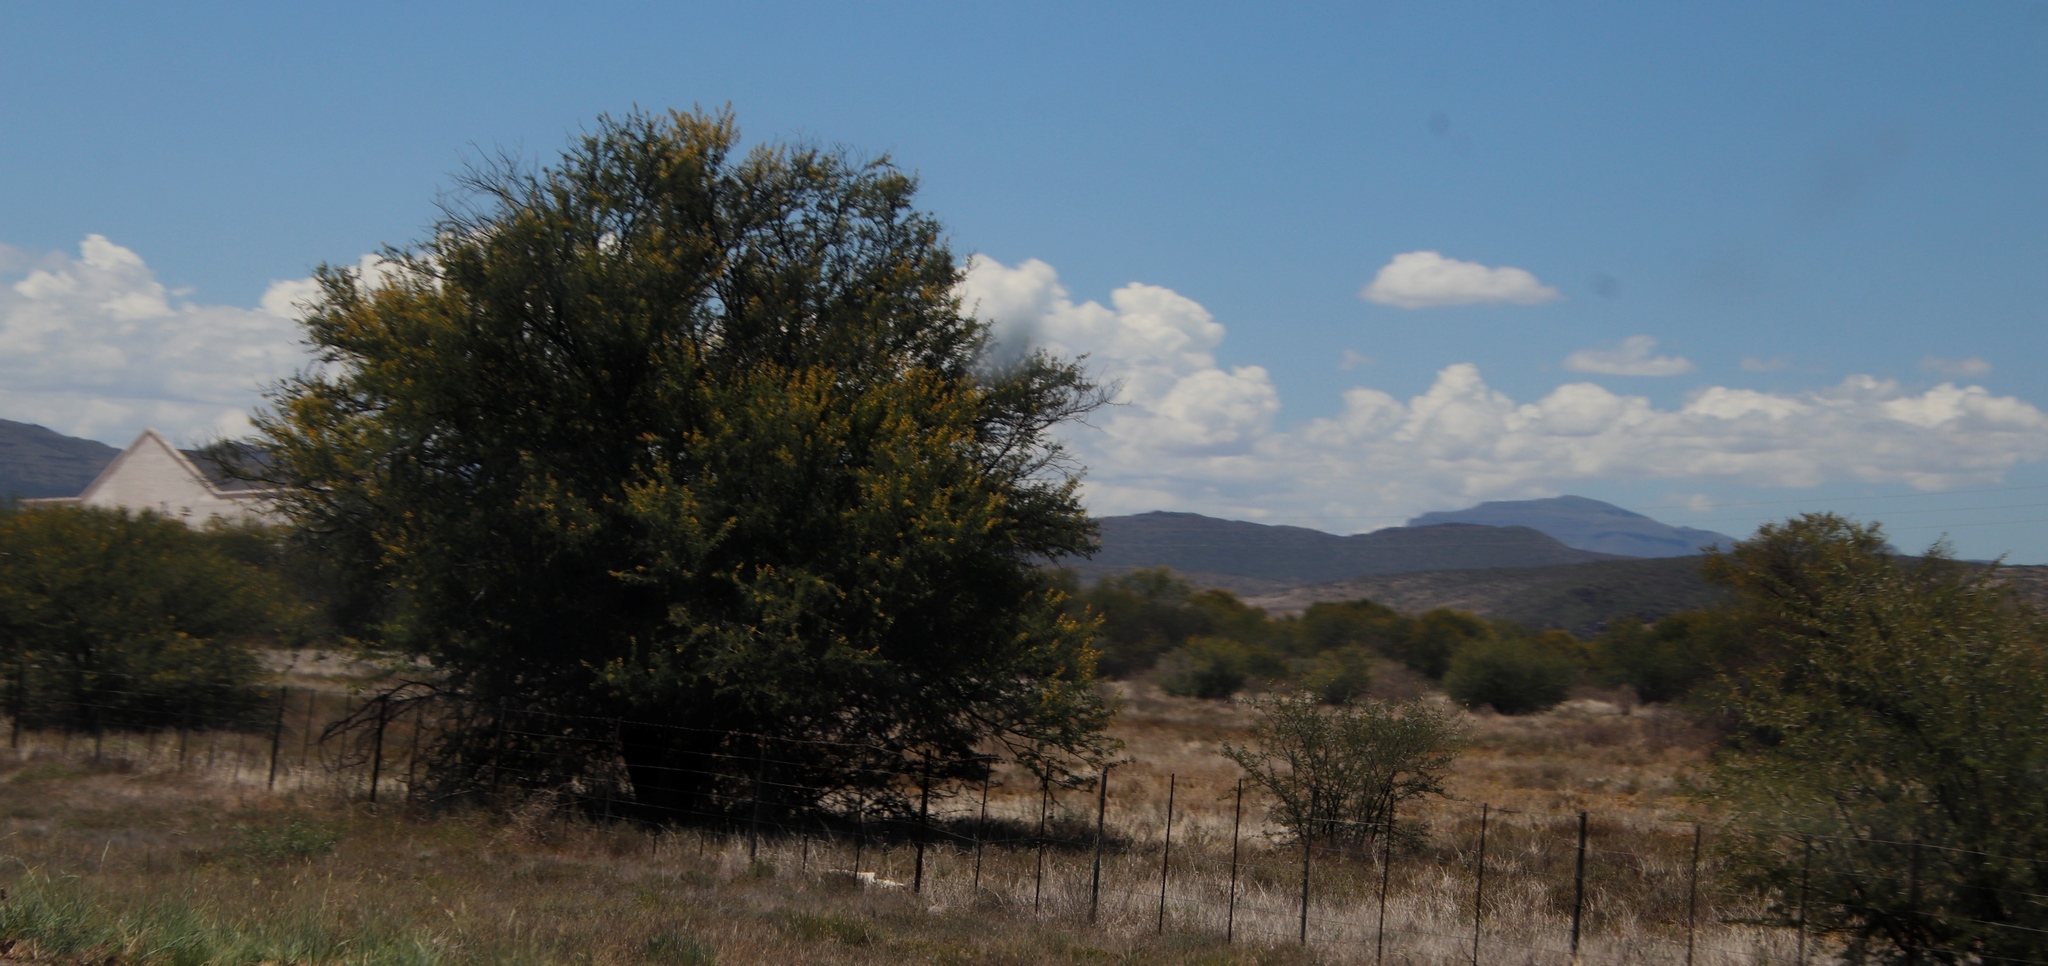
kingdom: Plantae
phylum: Tracheophyta
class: Magnoliopsida
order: Fabales
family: Fabaceae
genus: Vachellia
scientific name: Vachellia karroo
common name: Sweet thorn
